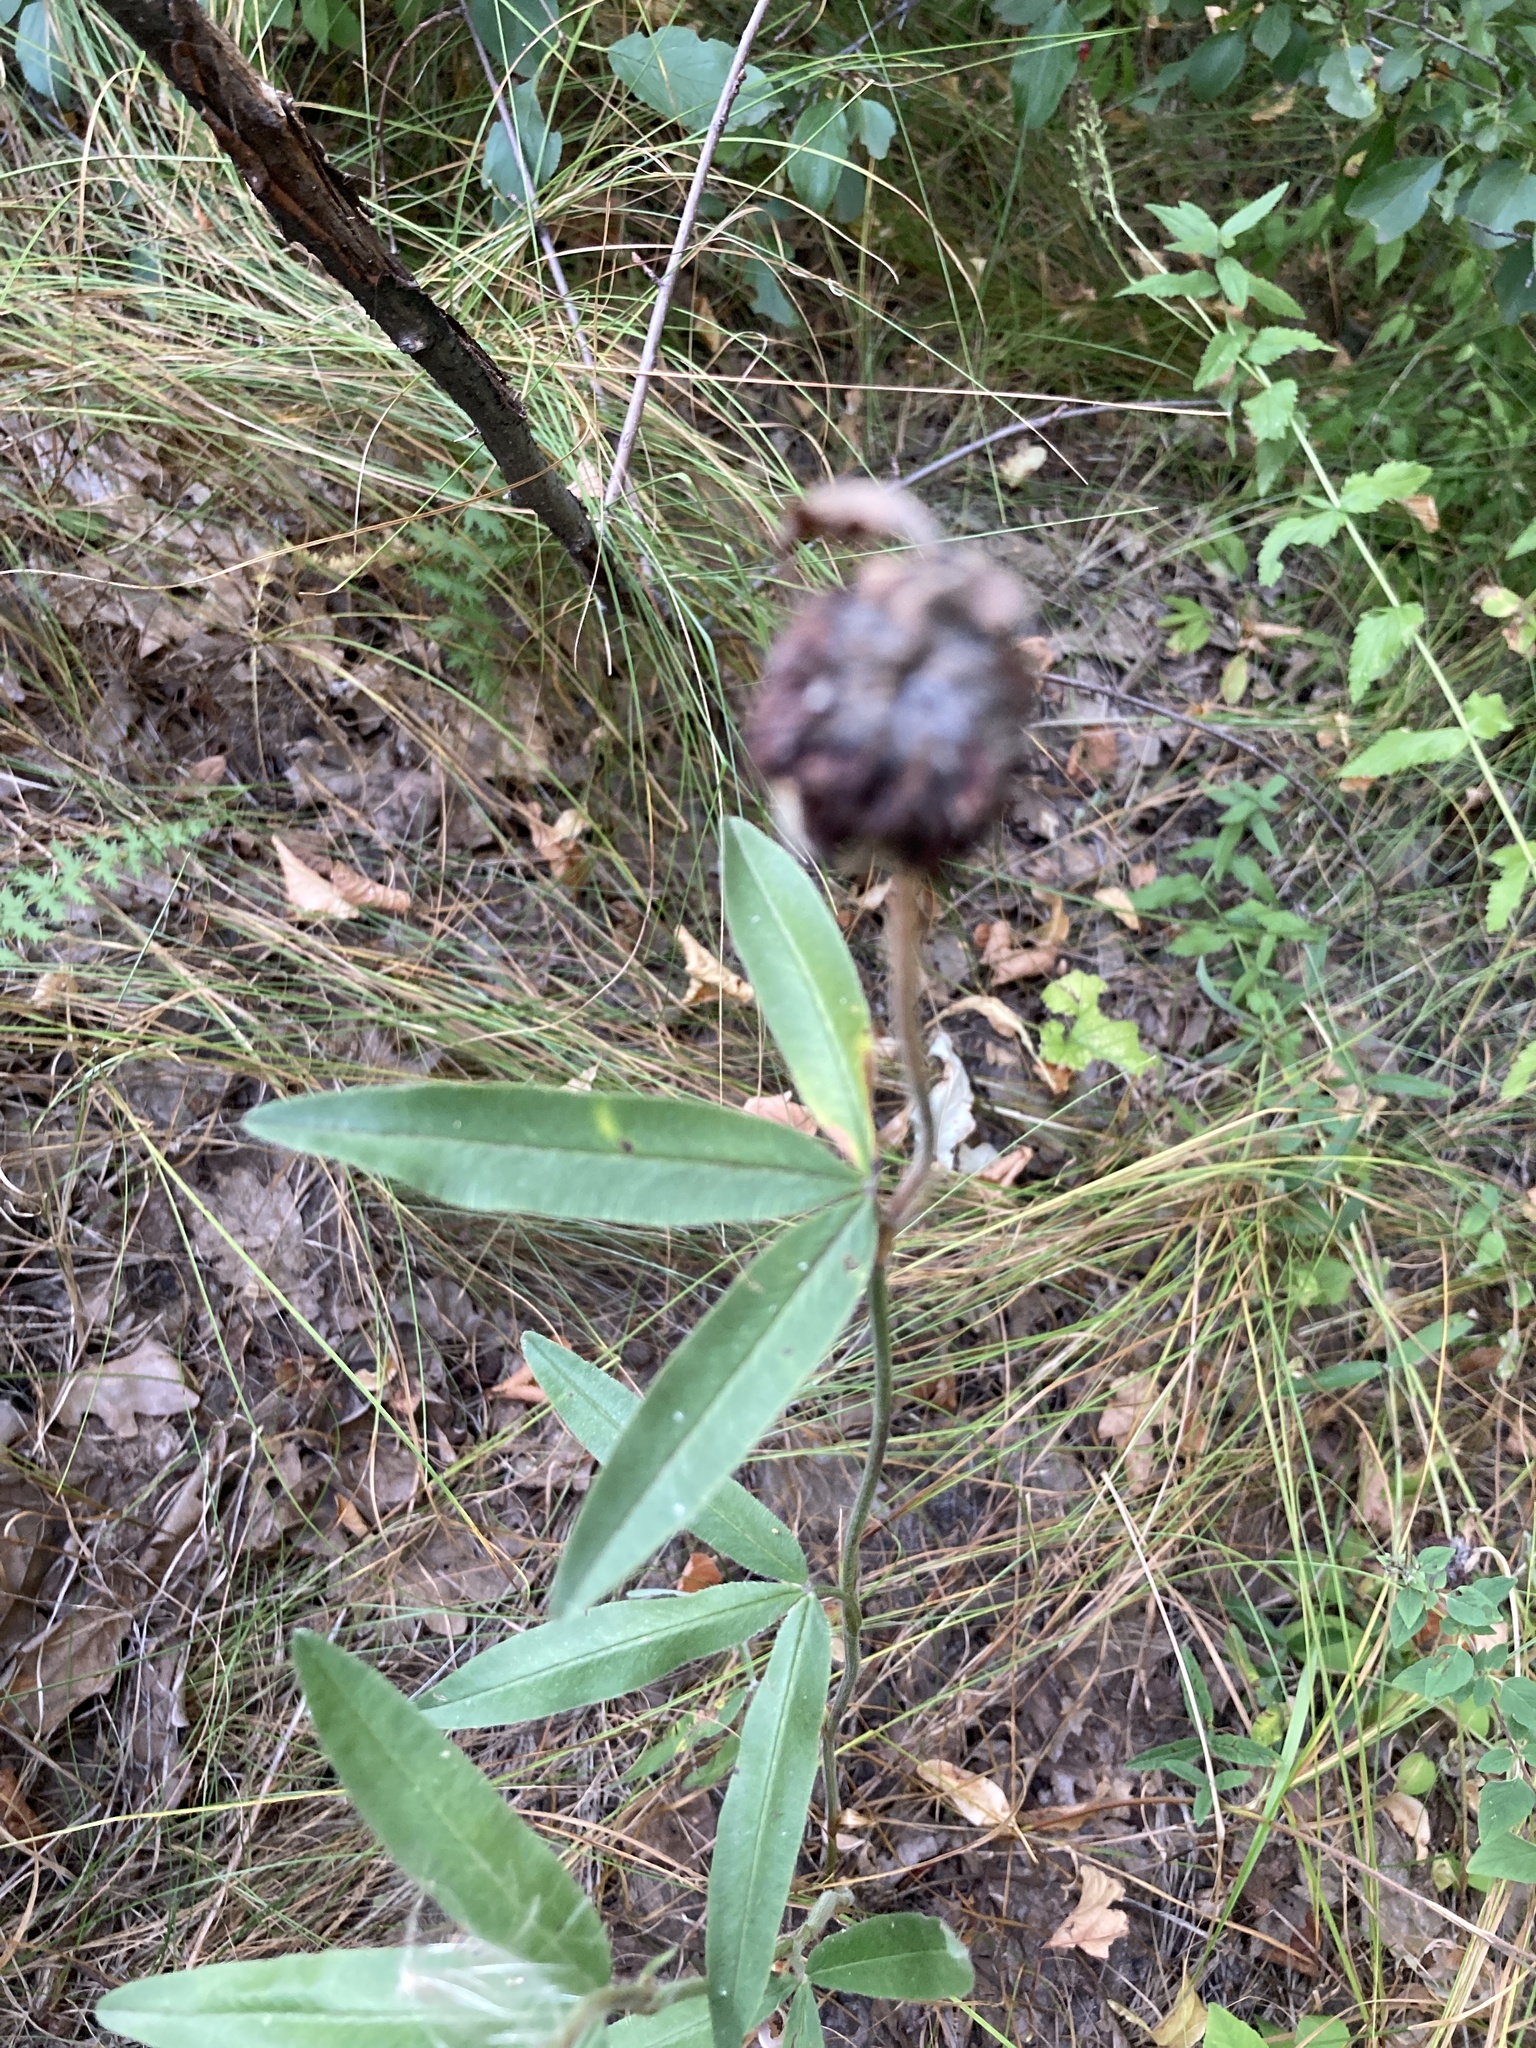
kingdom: Plantae
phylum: Tracheophyta
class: Magnoliopsida
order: Fabales
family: Fabaceae
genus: Trifolium
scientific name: Trifolium alpestre
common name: Owl-head clover
